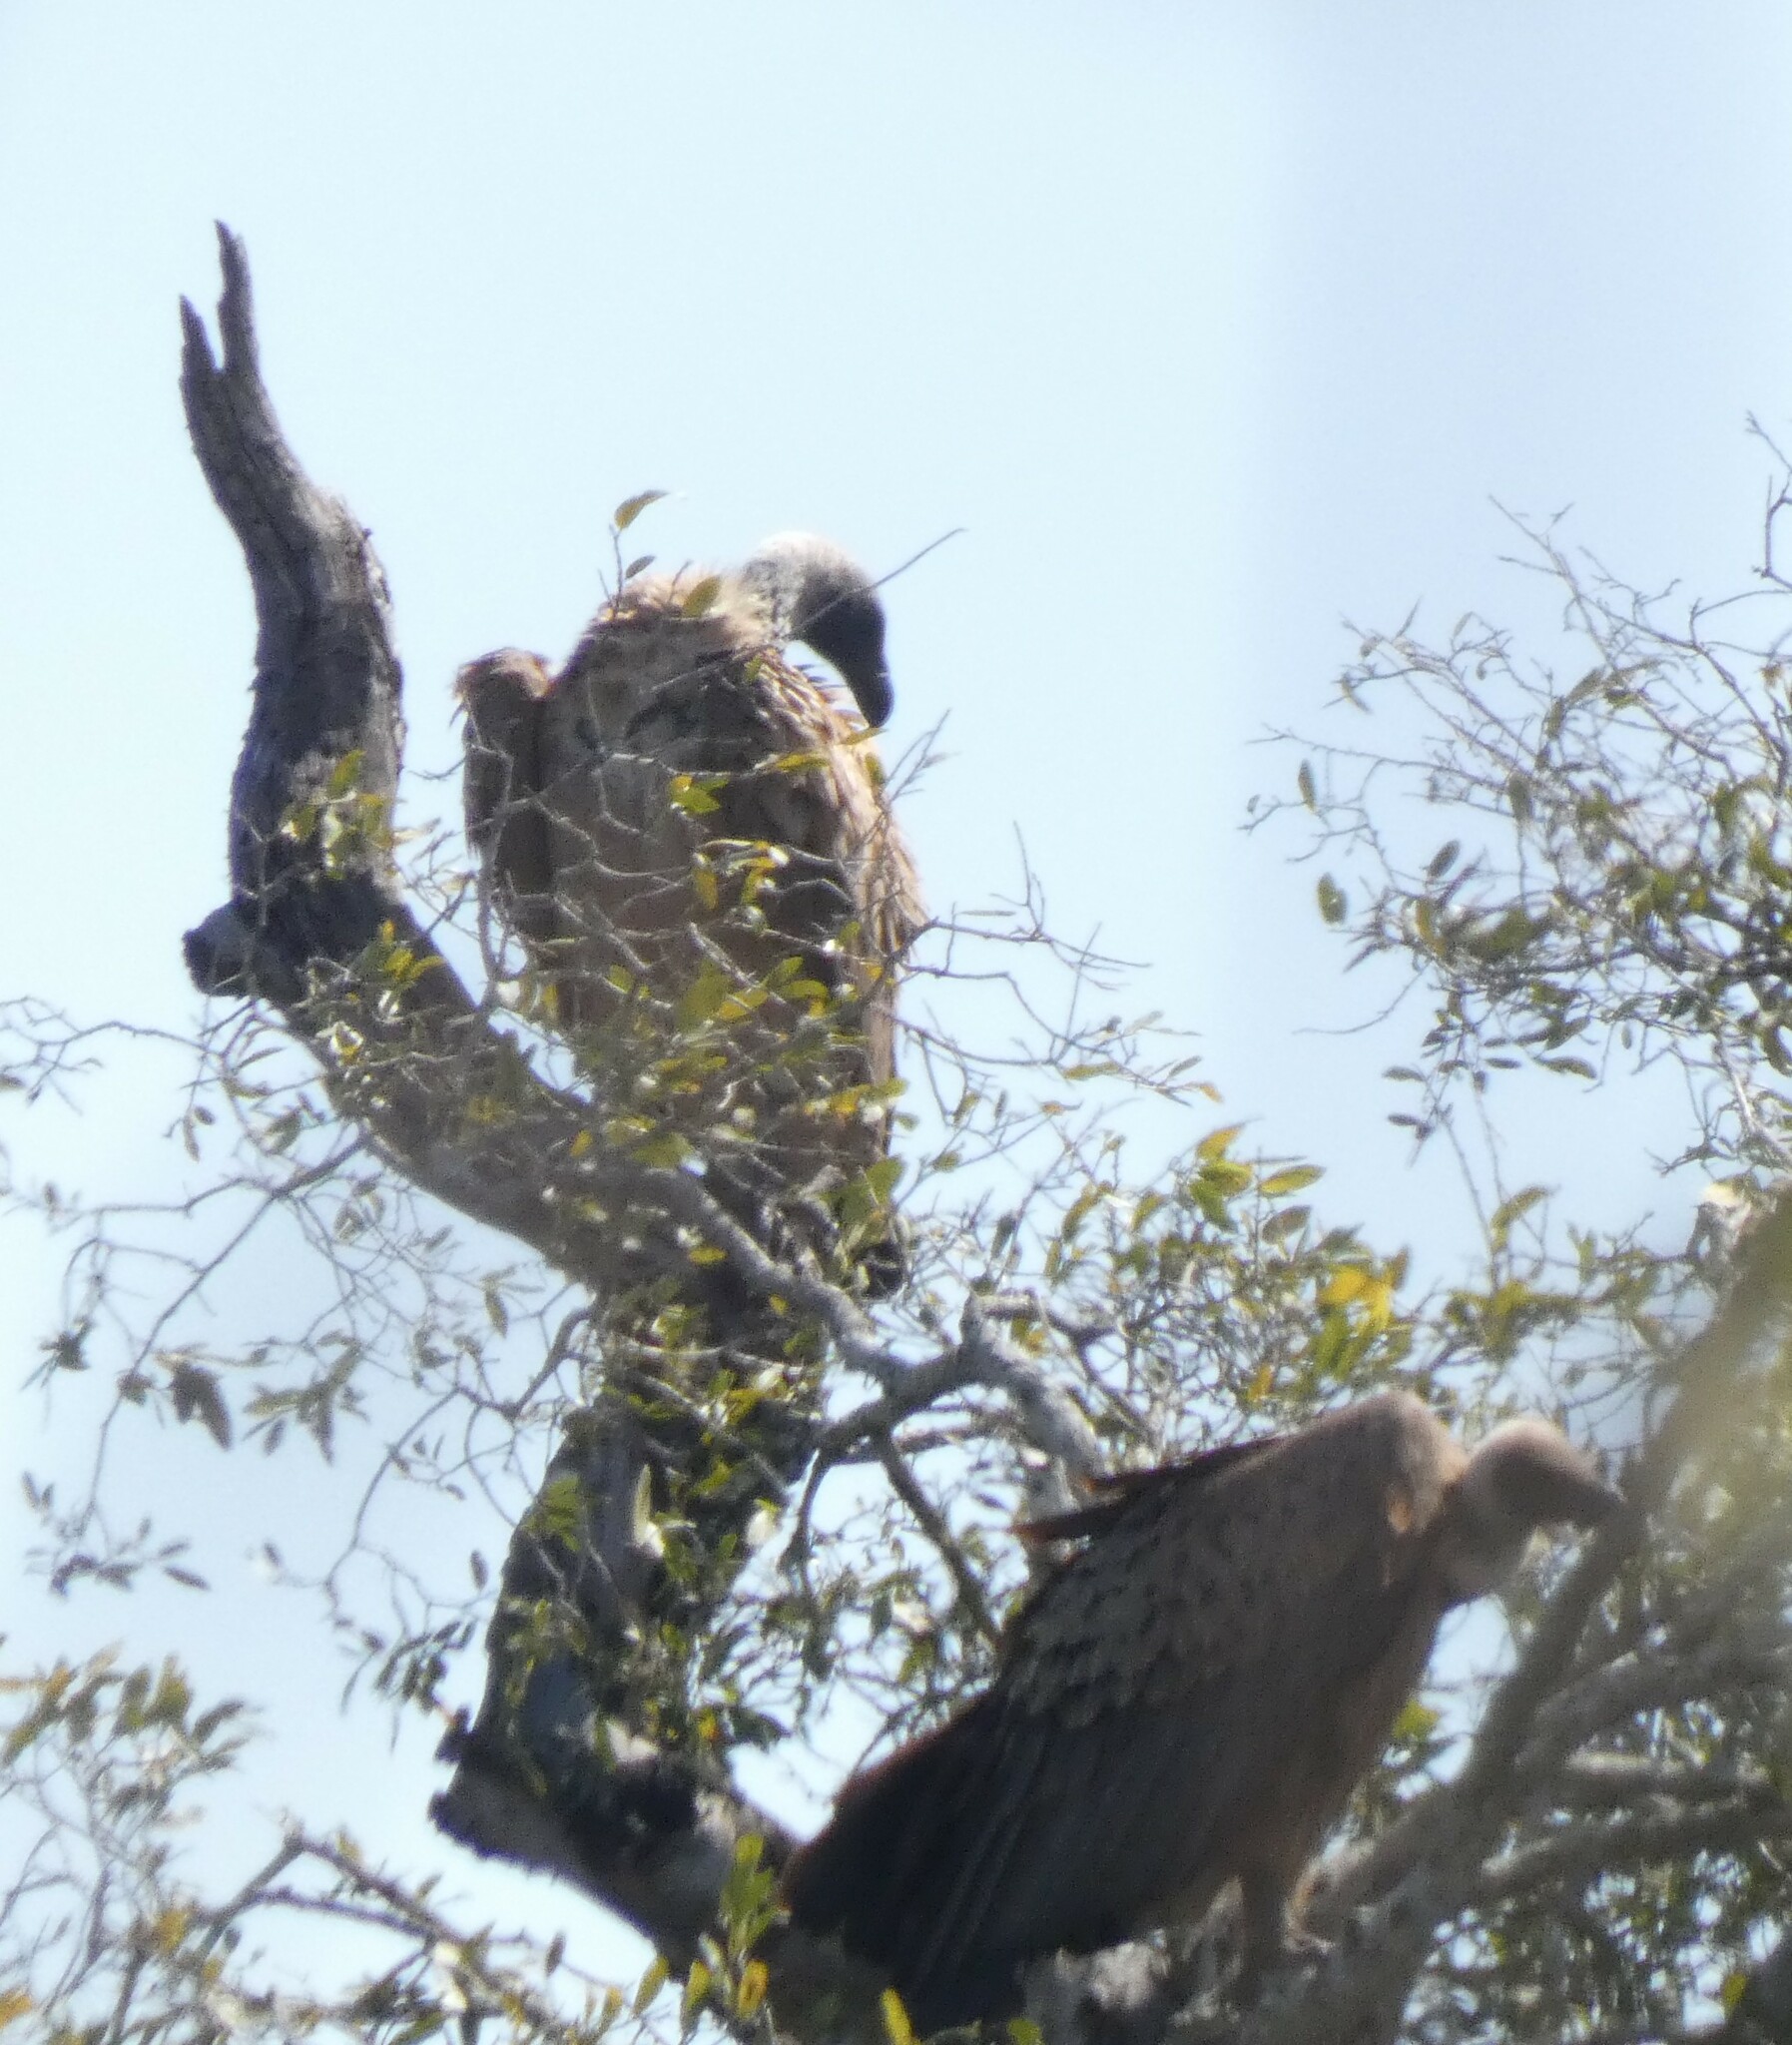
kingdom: Animalia
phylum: Chordata
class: Aves
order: Accipitriformes
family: Accipitridae
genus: Gyps
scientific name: Gyps africanus
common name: White-backed vulture
